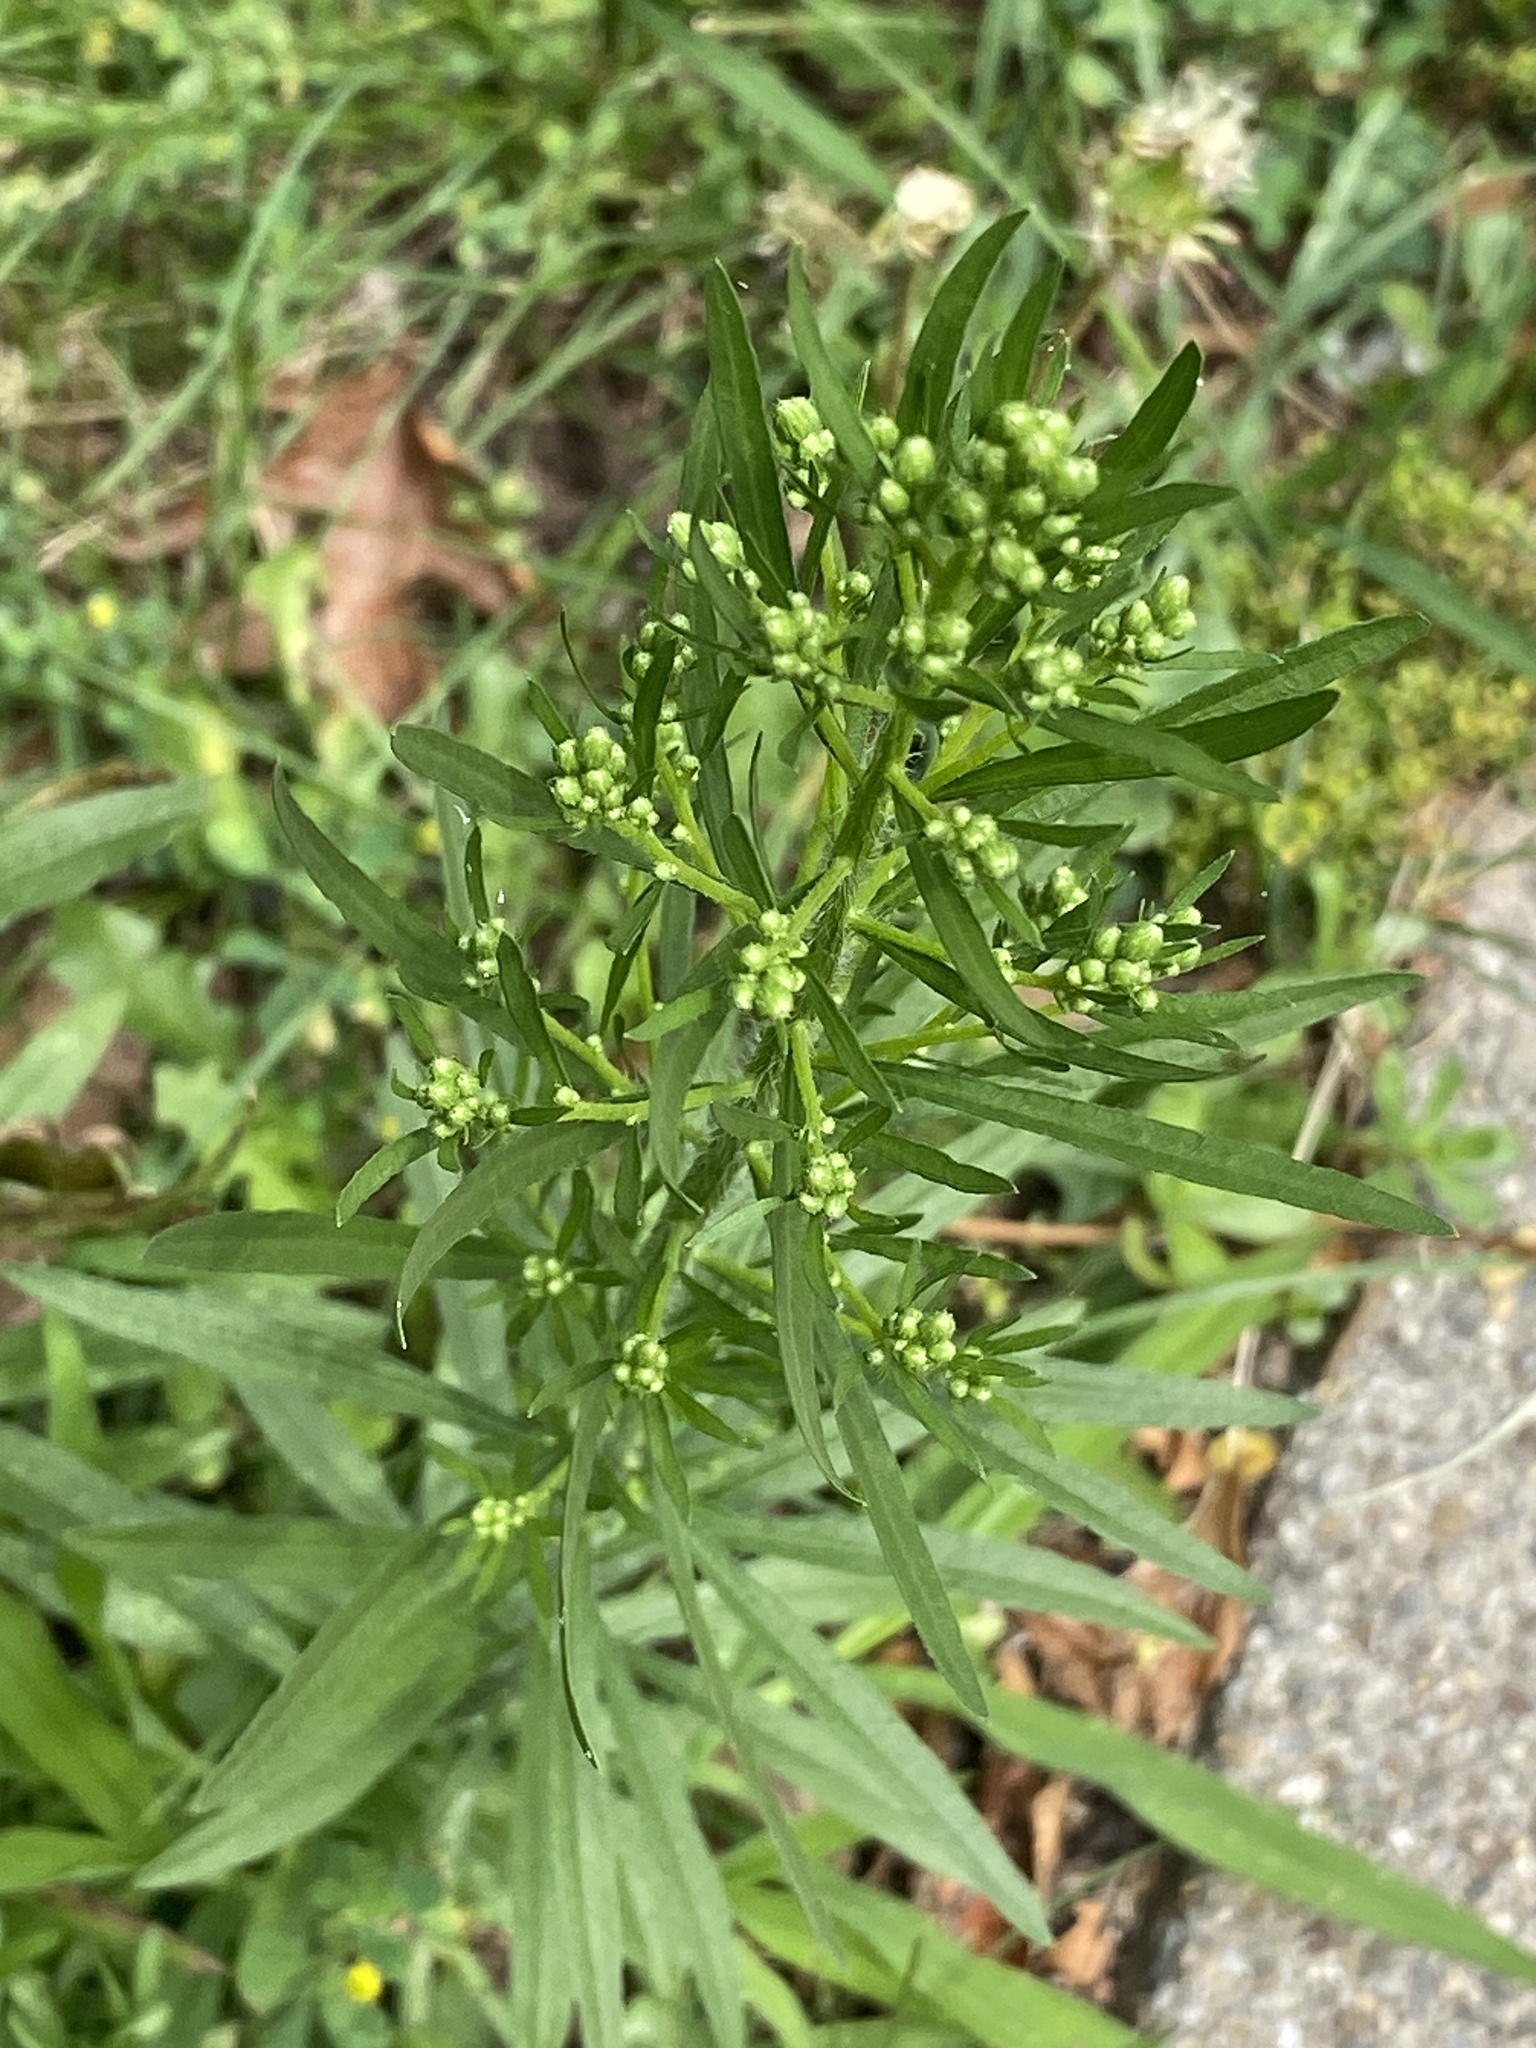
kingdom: Plantae
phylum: Tracheophyta
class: Magnoliopsida
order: Asterales
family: Asteraceae
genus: Erigeron
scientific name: Erigeron canadensis
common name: Canadian fleabane
